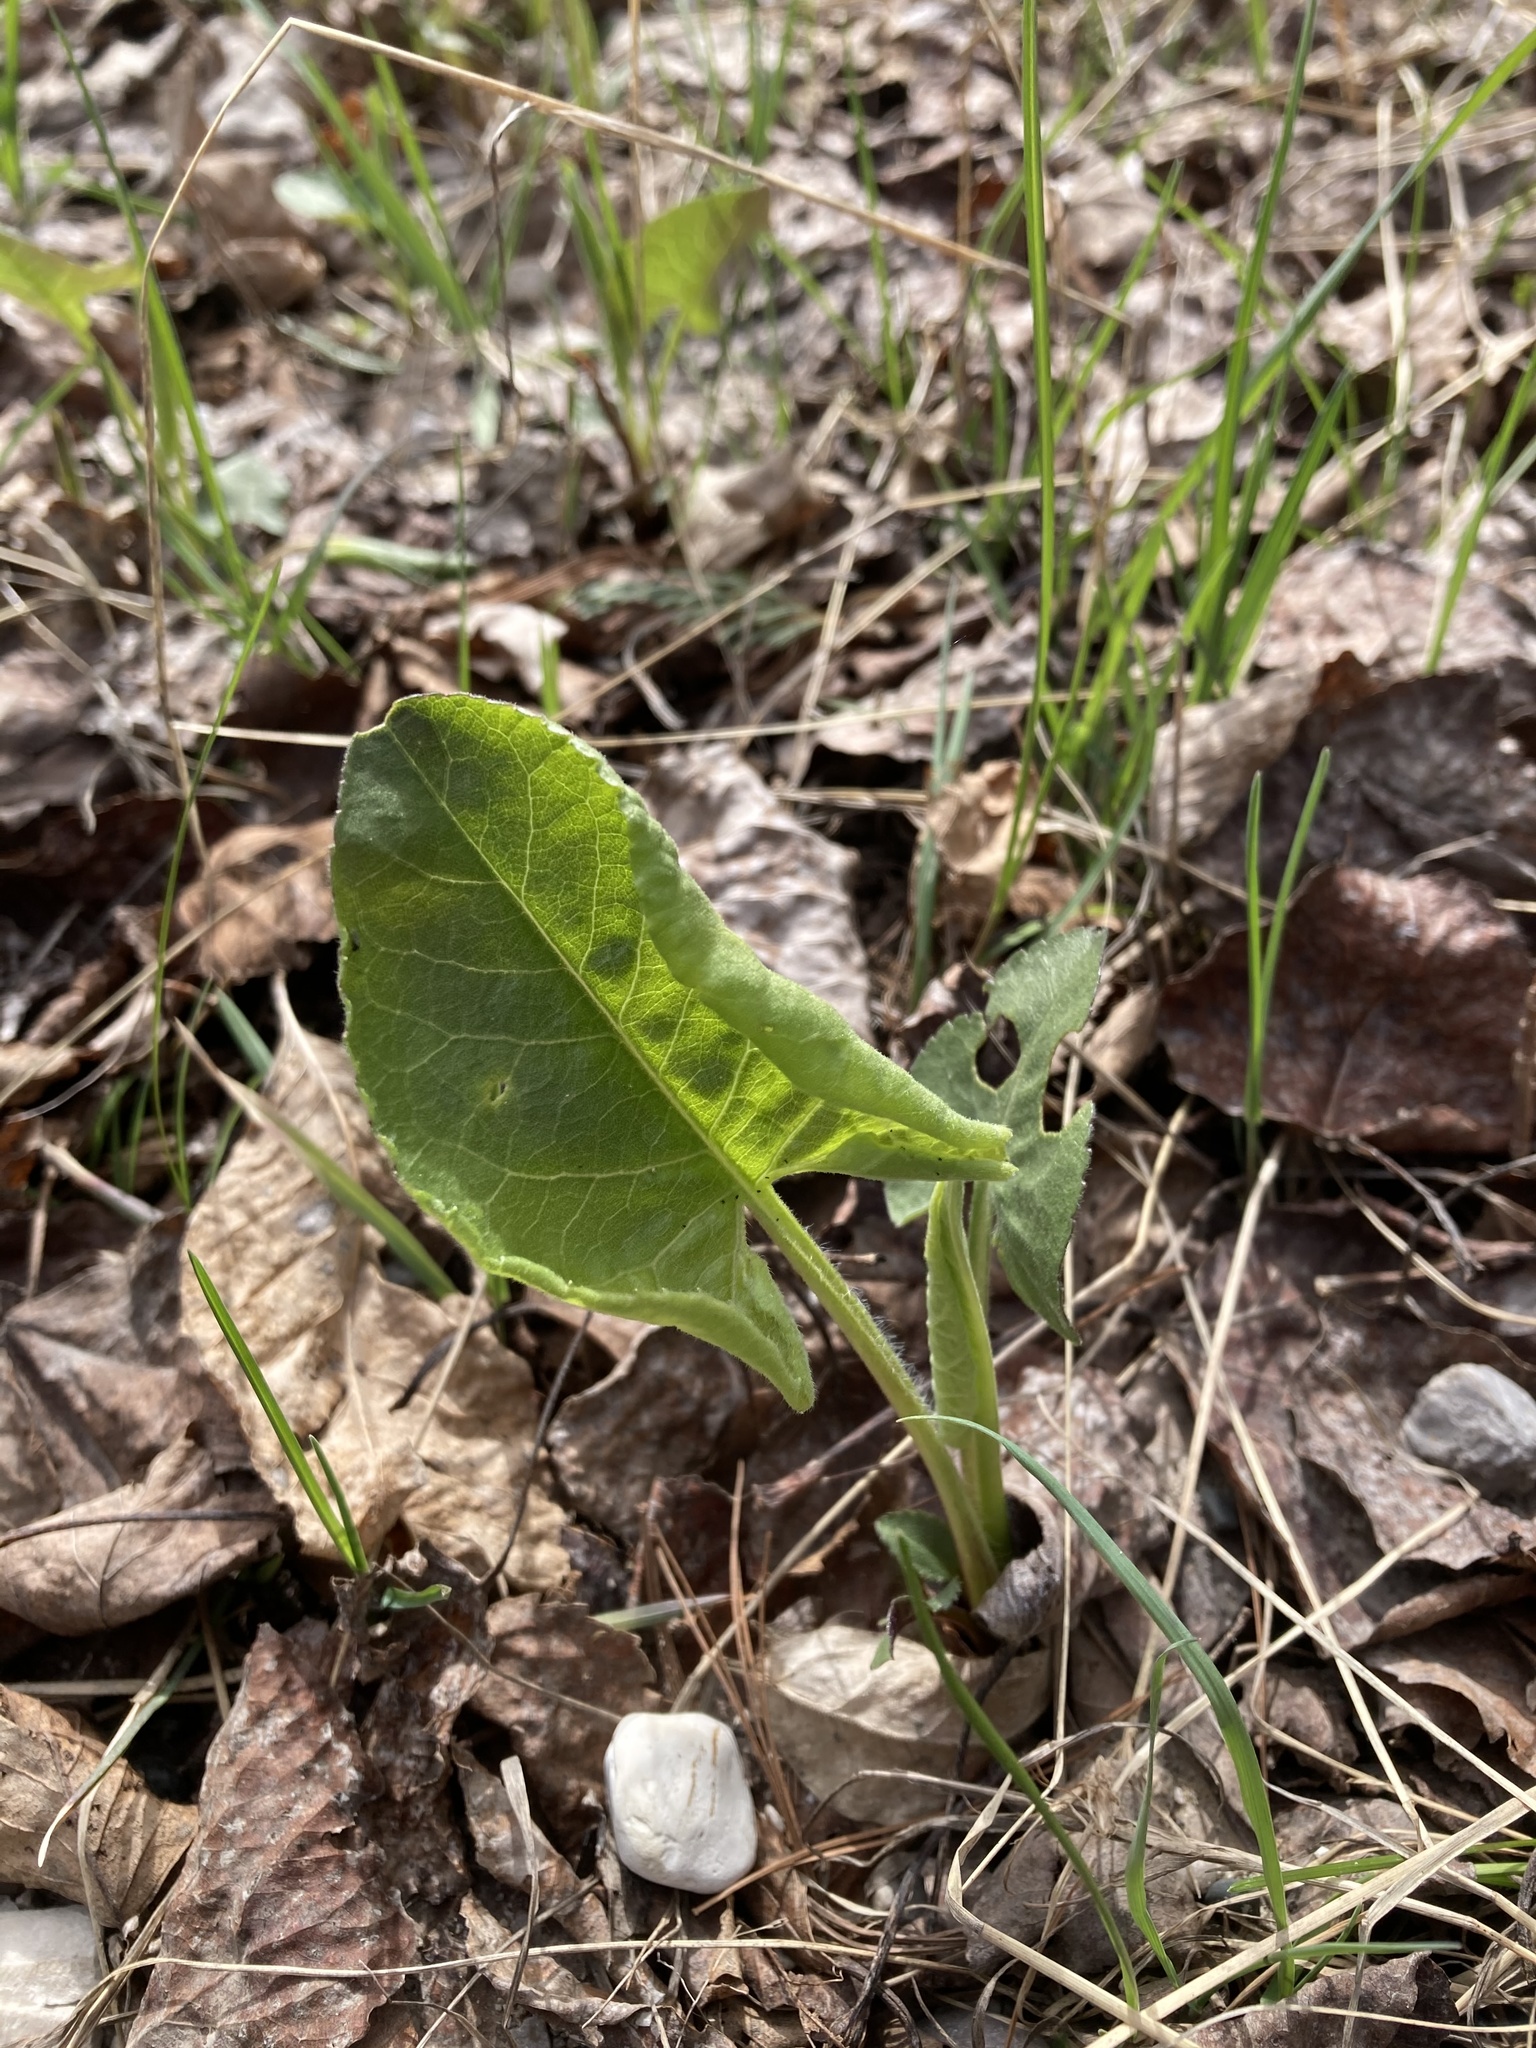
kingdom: Plantae
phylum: Tracheophyta
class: Magnoliopsida
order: Asterales
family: Asteraceae
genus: Eurybia
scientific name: Eurybia macrophylla
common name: Big-leaved aster
